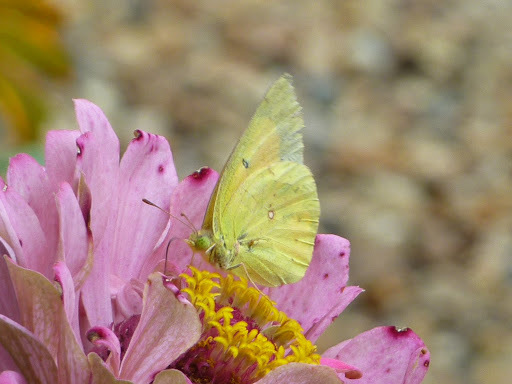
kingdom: Animalia
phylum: Arthropoda
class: Insecta
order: Lepidoptera
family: Pieridae
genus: Colias
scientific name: Colias eurytheme
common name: Alfalfa butterfly
